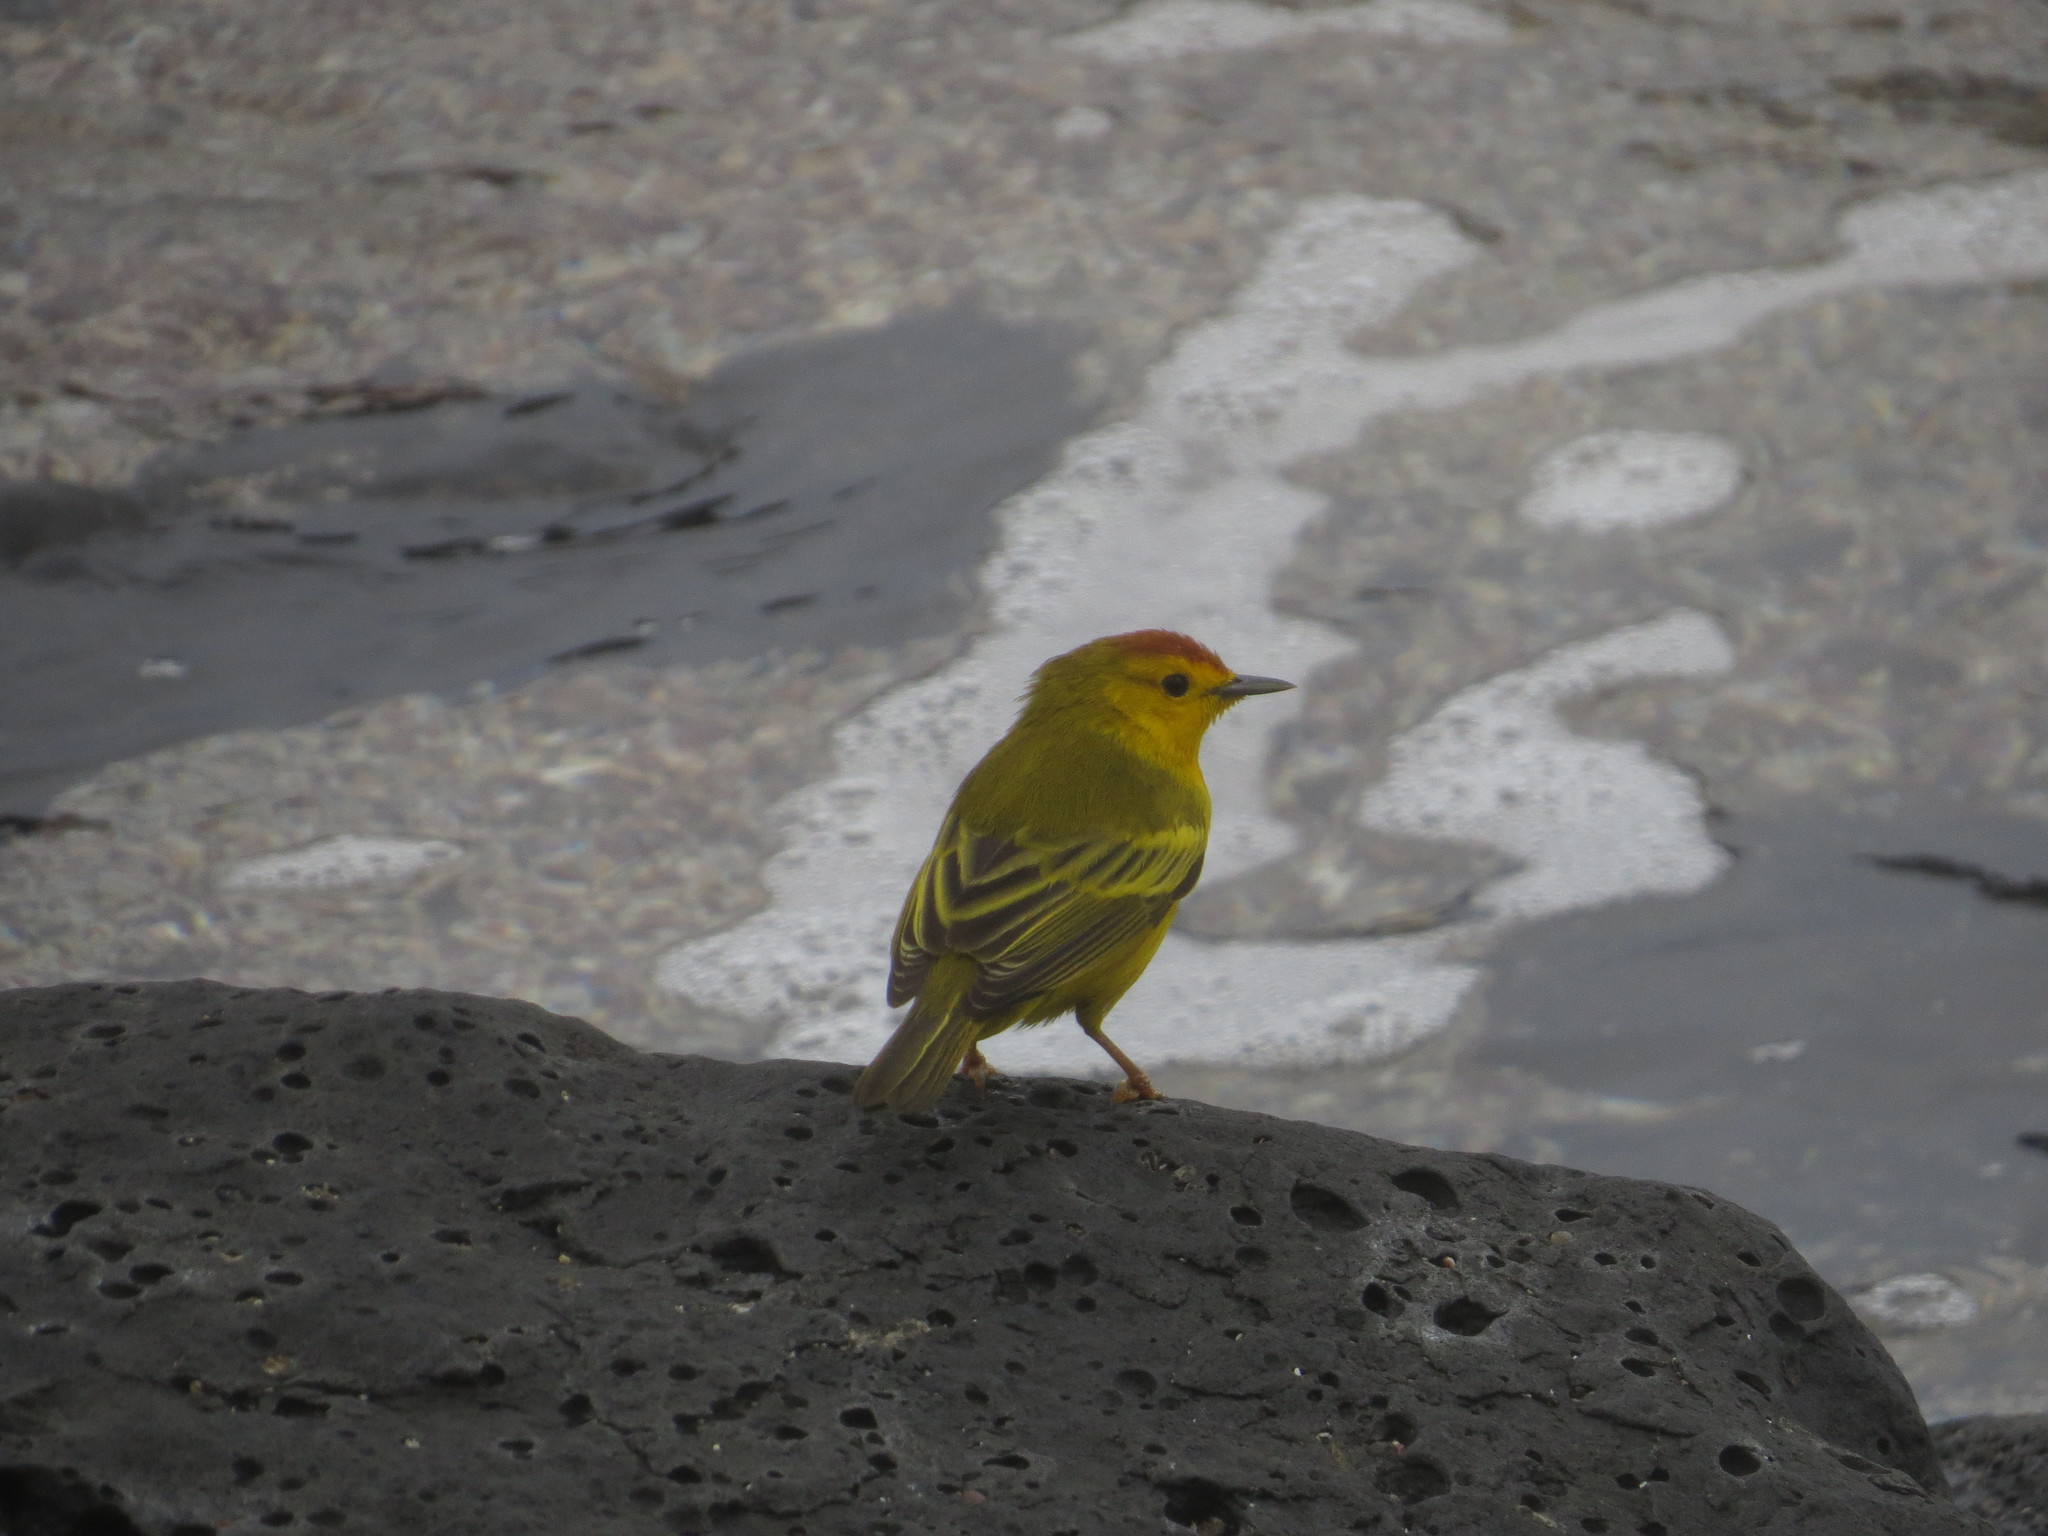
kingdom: Animalia
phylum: Chordata
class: Aves
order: Passeriformes
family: Parulidae
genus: Setophaga
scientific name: Setophaga petechia
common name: Yellow warbler
